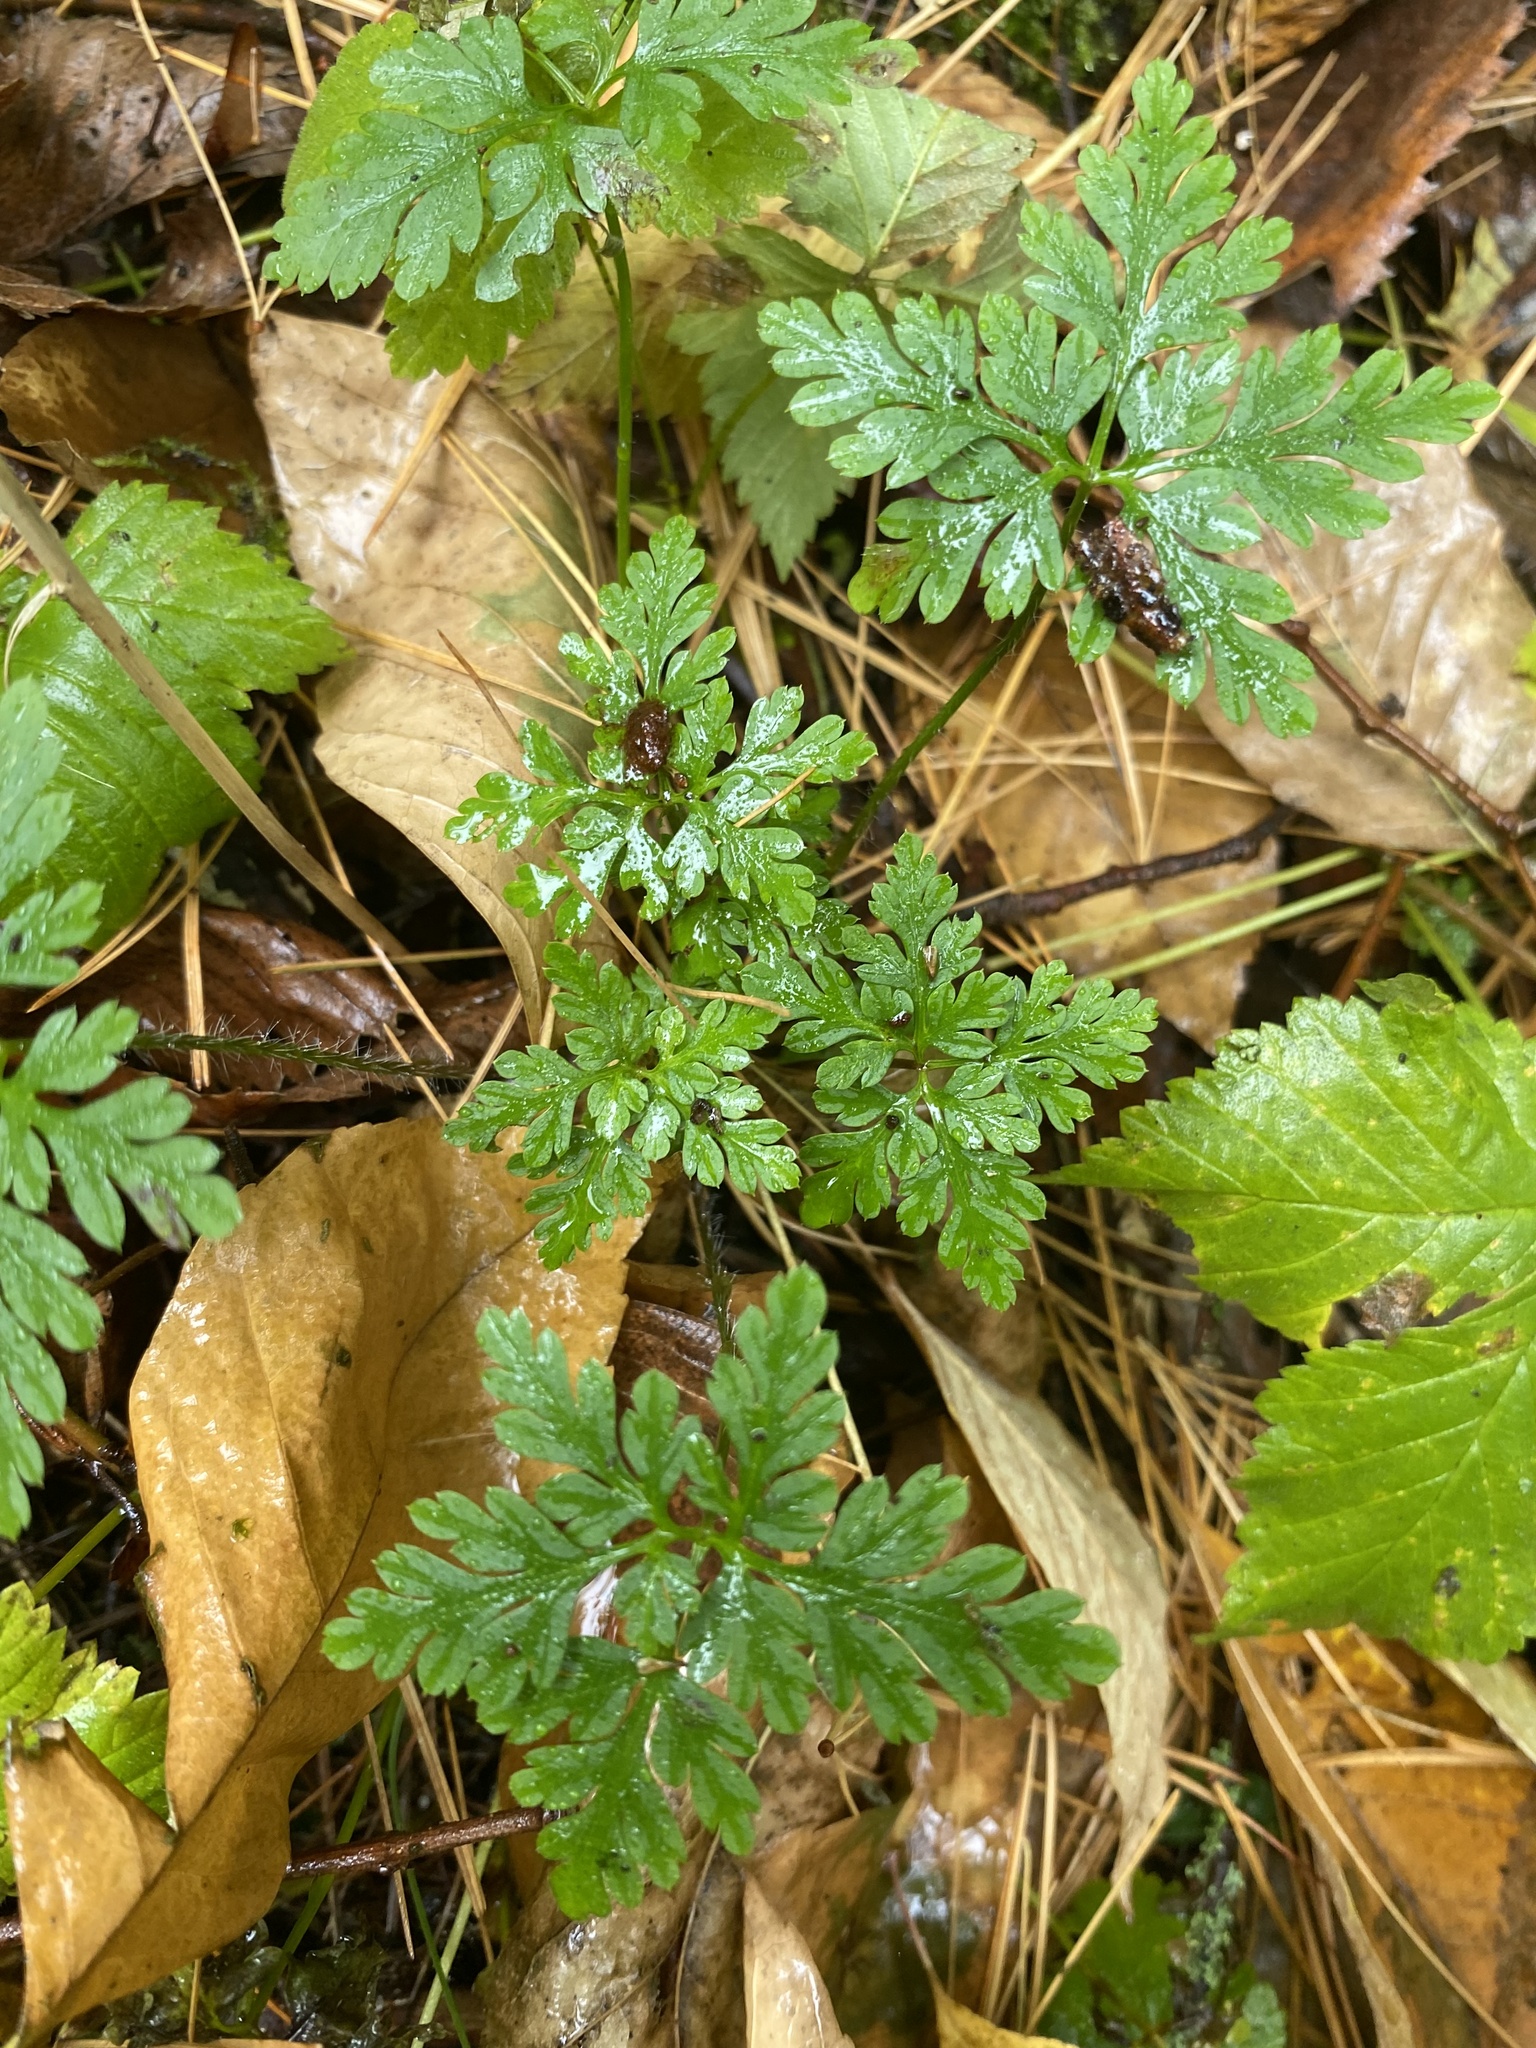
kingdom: Plantae
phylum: Tracheophyta
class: Magnoliopsida
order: Geraniales
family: Geraniaceae
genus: Geranium
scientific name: Geranium robertianum
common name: Herb-robert
